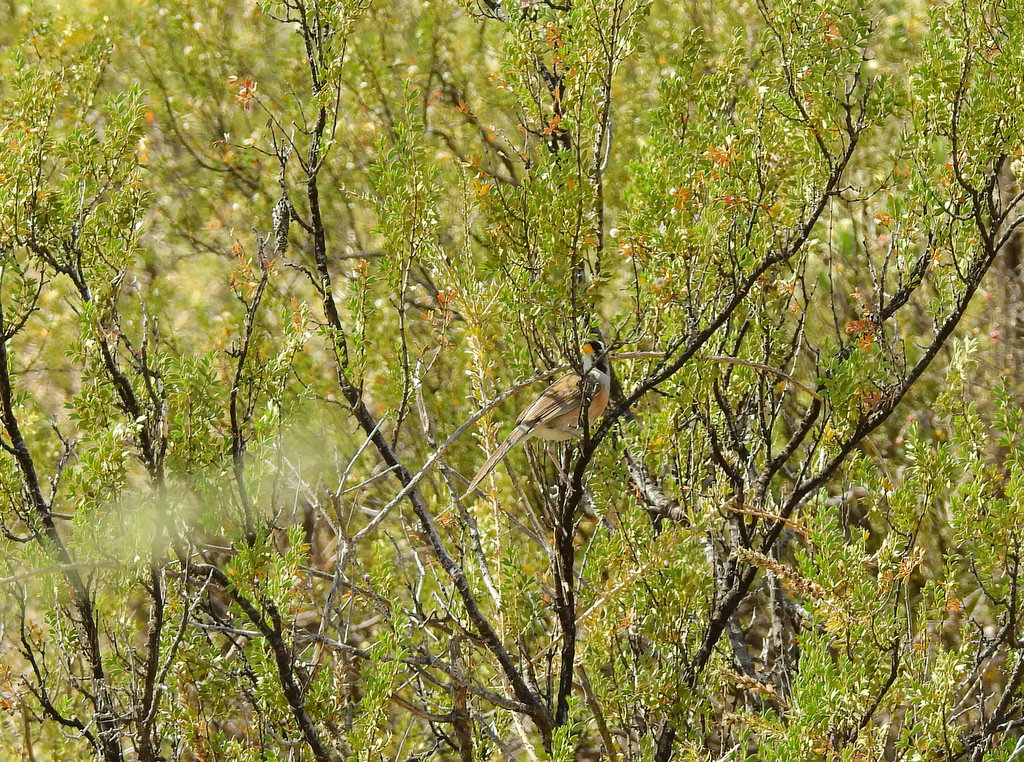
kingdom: Animalia
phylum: Chordata
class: Aves
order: Passeriformes
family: Thraupidae
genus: Saltatricula
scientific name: Saltatricula multicolor
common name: Many-colored chaco finch
